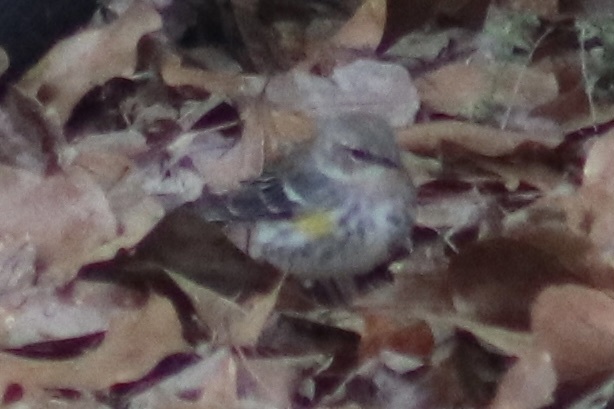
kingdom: Animalia
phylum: Chordata
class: Aves
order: Passeriformes
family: Parulidae
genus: Setophaga
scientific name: Setophaga coronata
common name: Myrtle warbler
